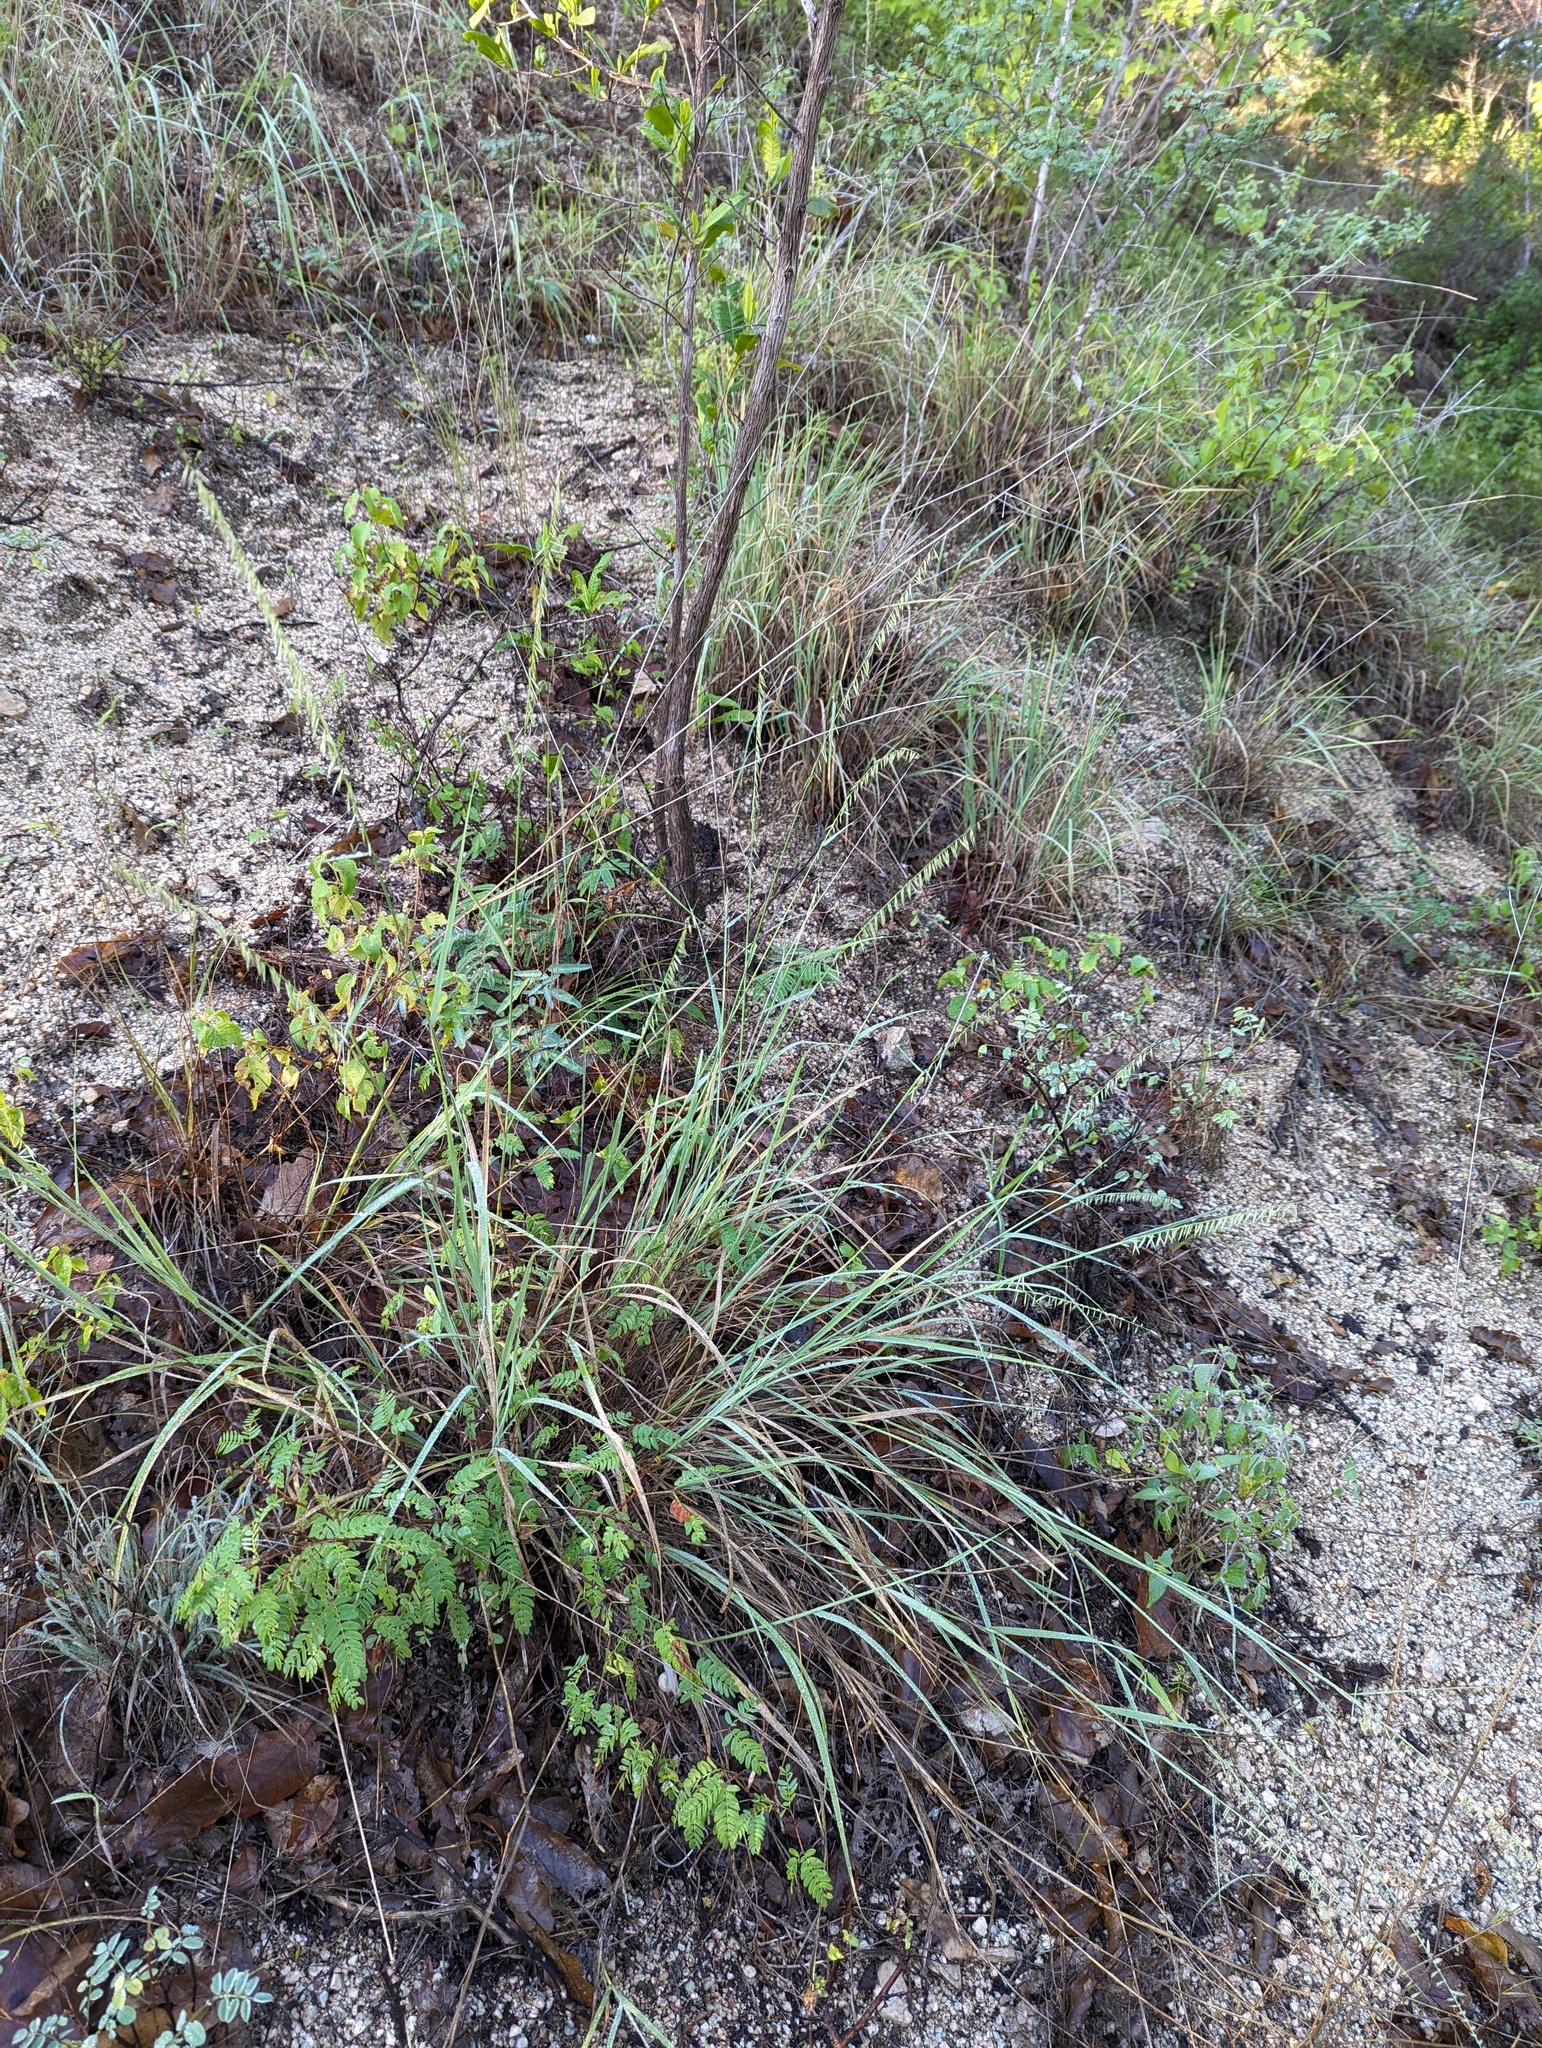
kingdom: Plantae
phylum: Tracheophyta
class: Liliopsida
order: Poales
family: Poaceae
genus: Bouteloua
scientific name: Bouteloua reflexa
